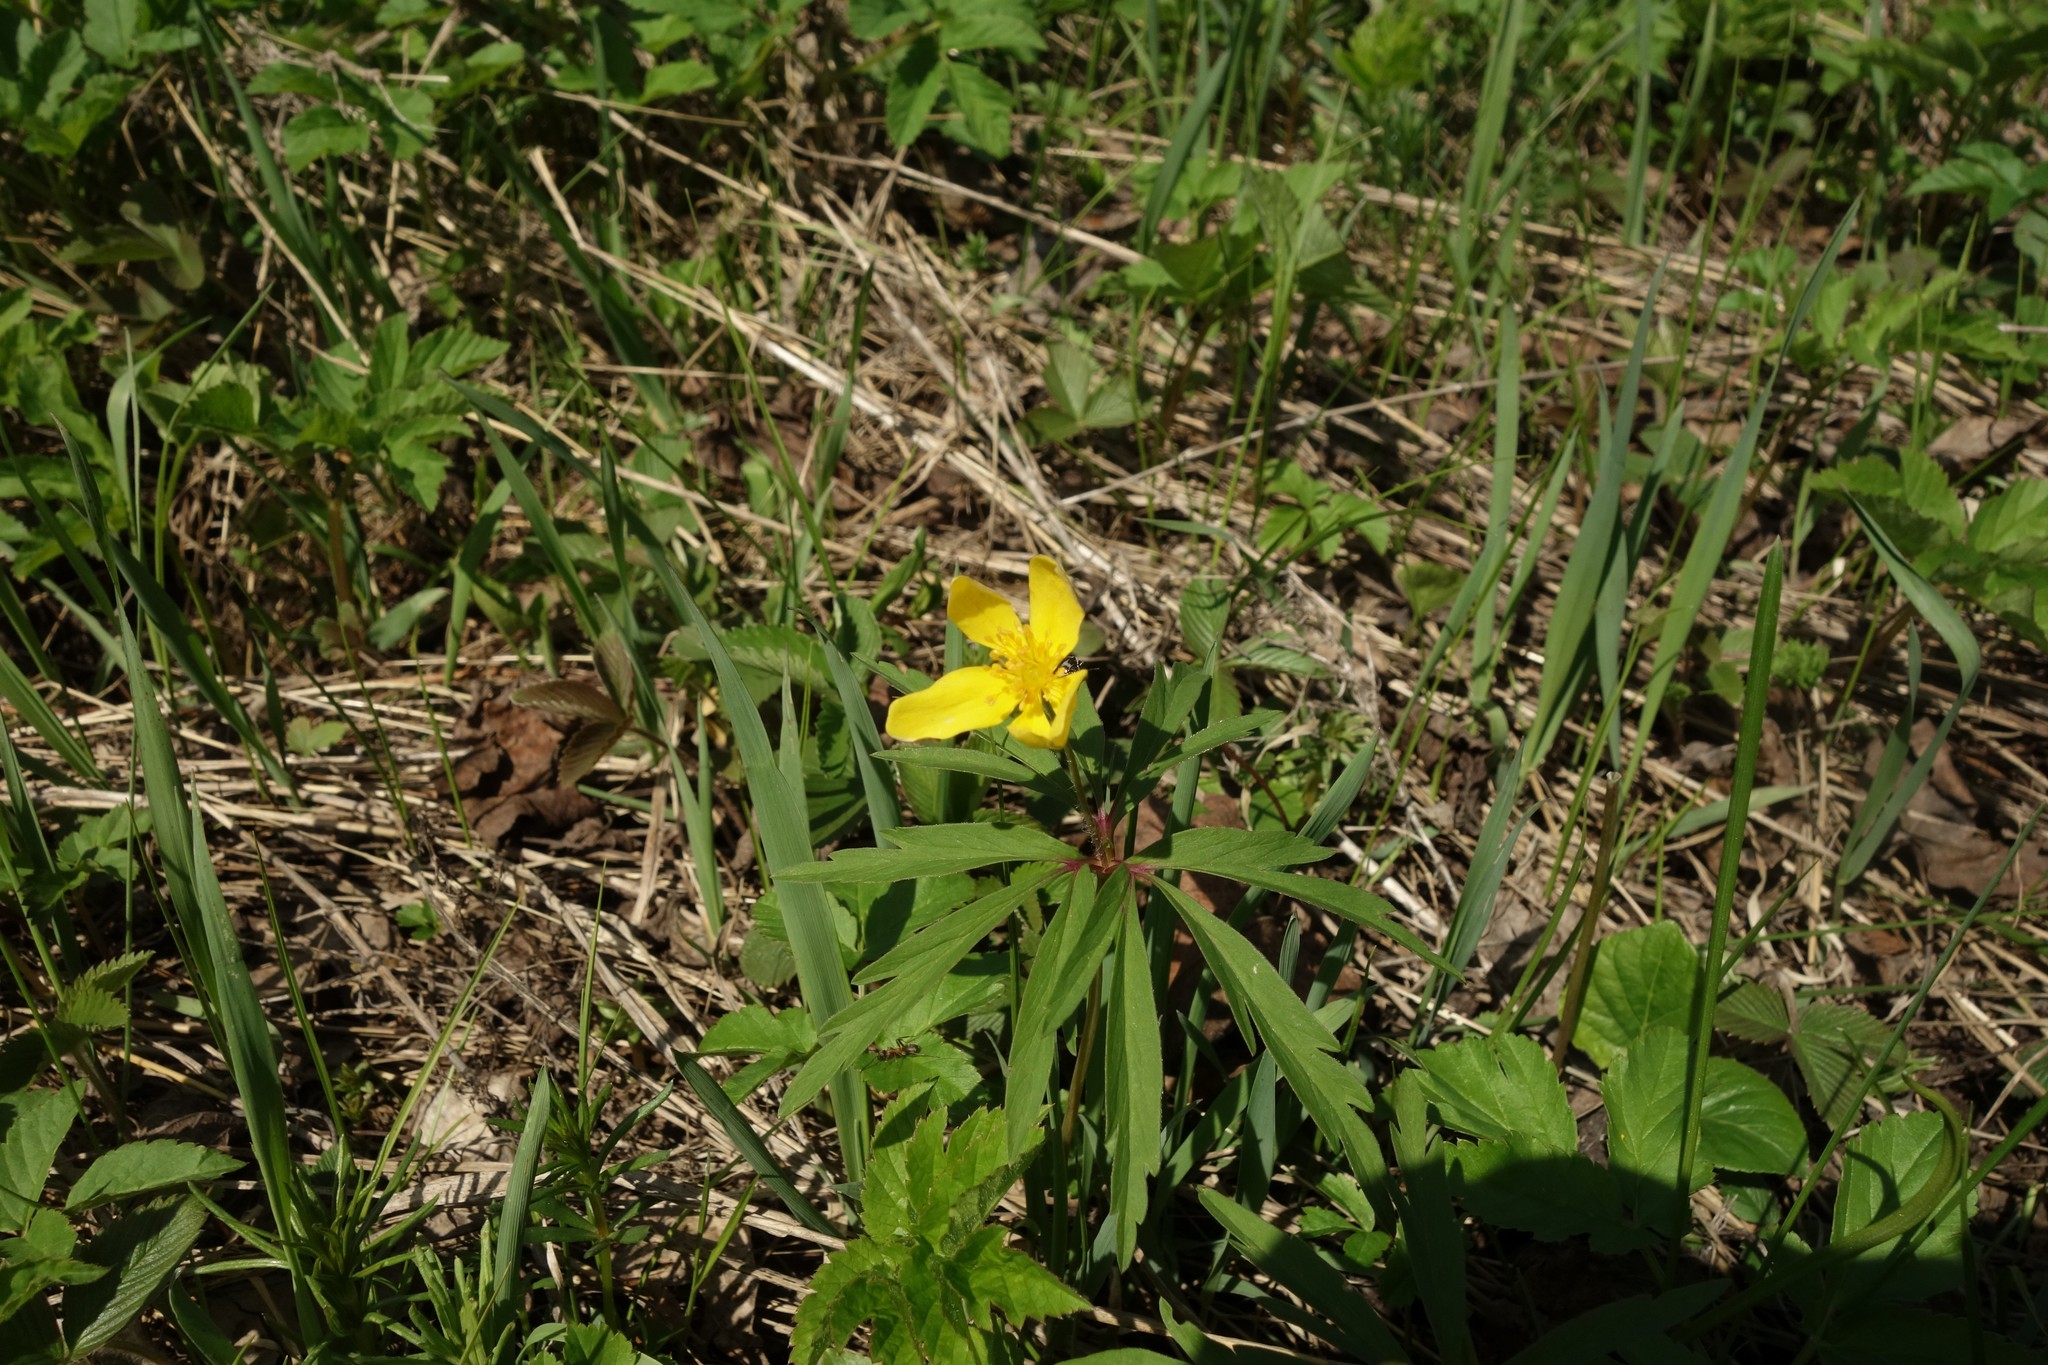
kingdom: Plantae
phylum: Tracheophyta
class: Magnoliopsida
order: Ranunculales
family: Ranunculaceae
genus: Anemone
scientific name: Anemone ranunculoides
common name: Yellow anemone
